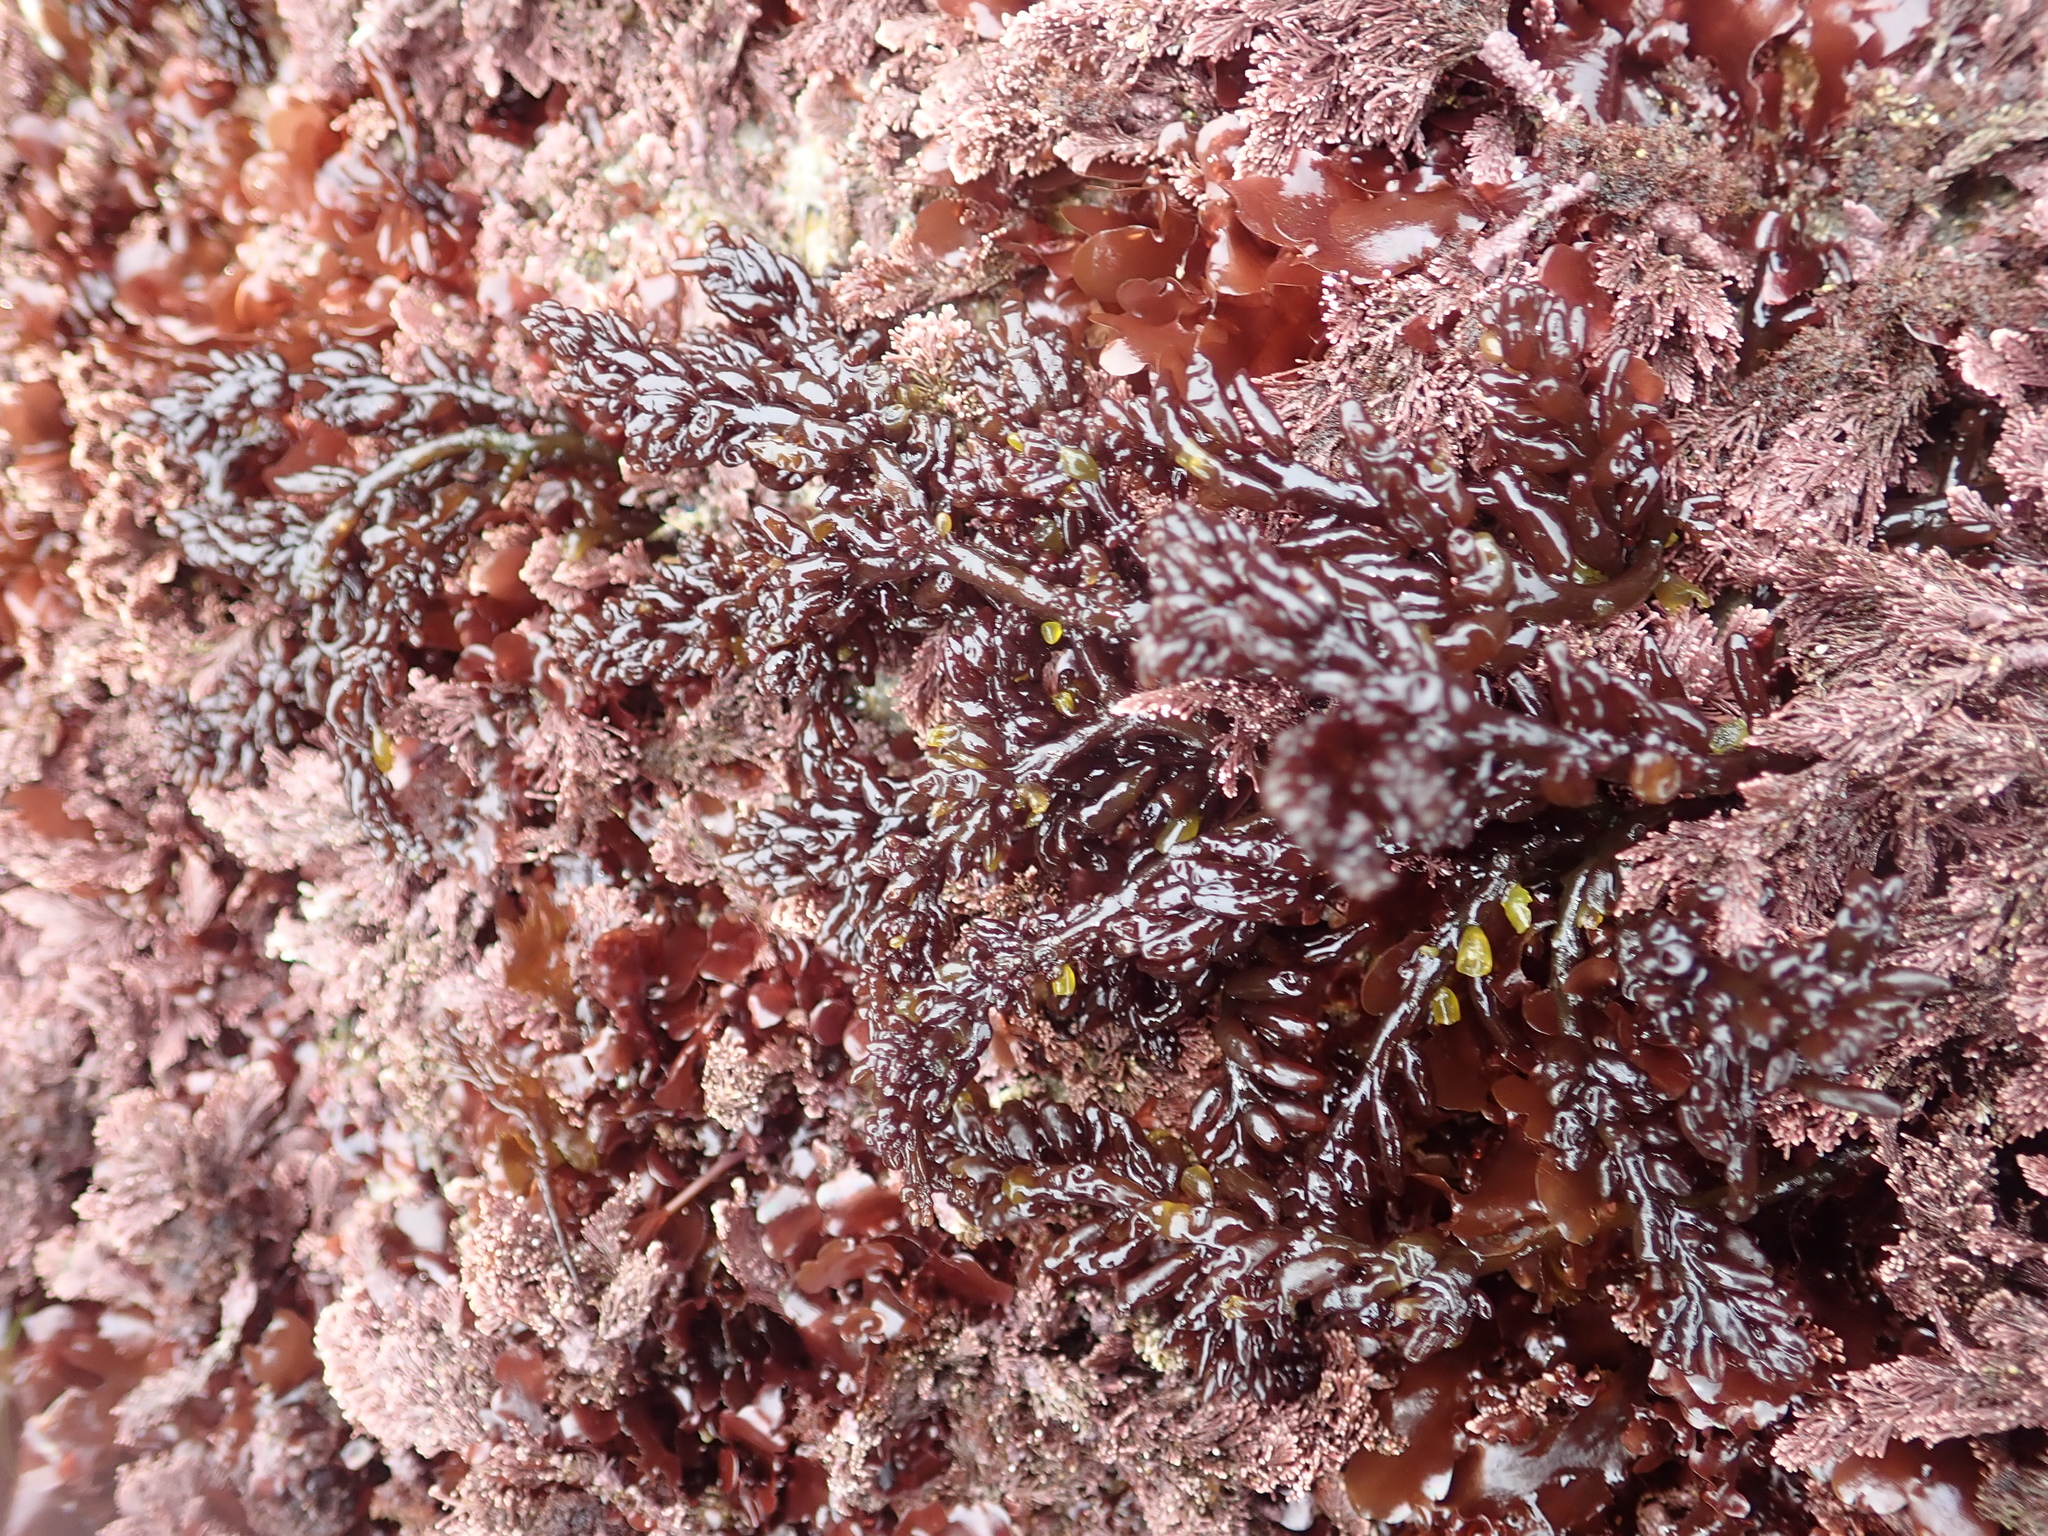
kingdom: Plantae
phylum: Rhodophyta
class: Florideophyceae
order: Rhodymeniales
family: Champiaceae
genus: Neogastroclonium
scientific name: Neogastroclonium subarticulatum
